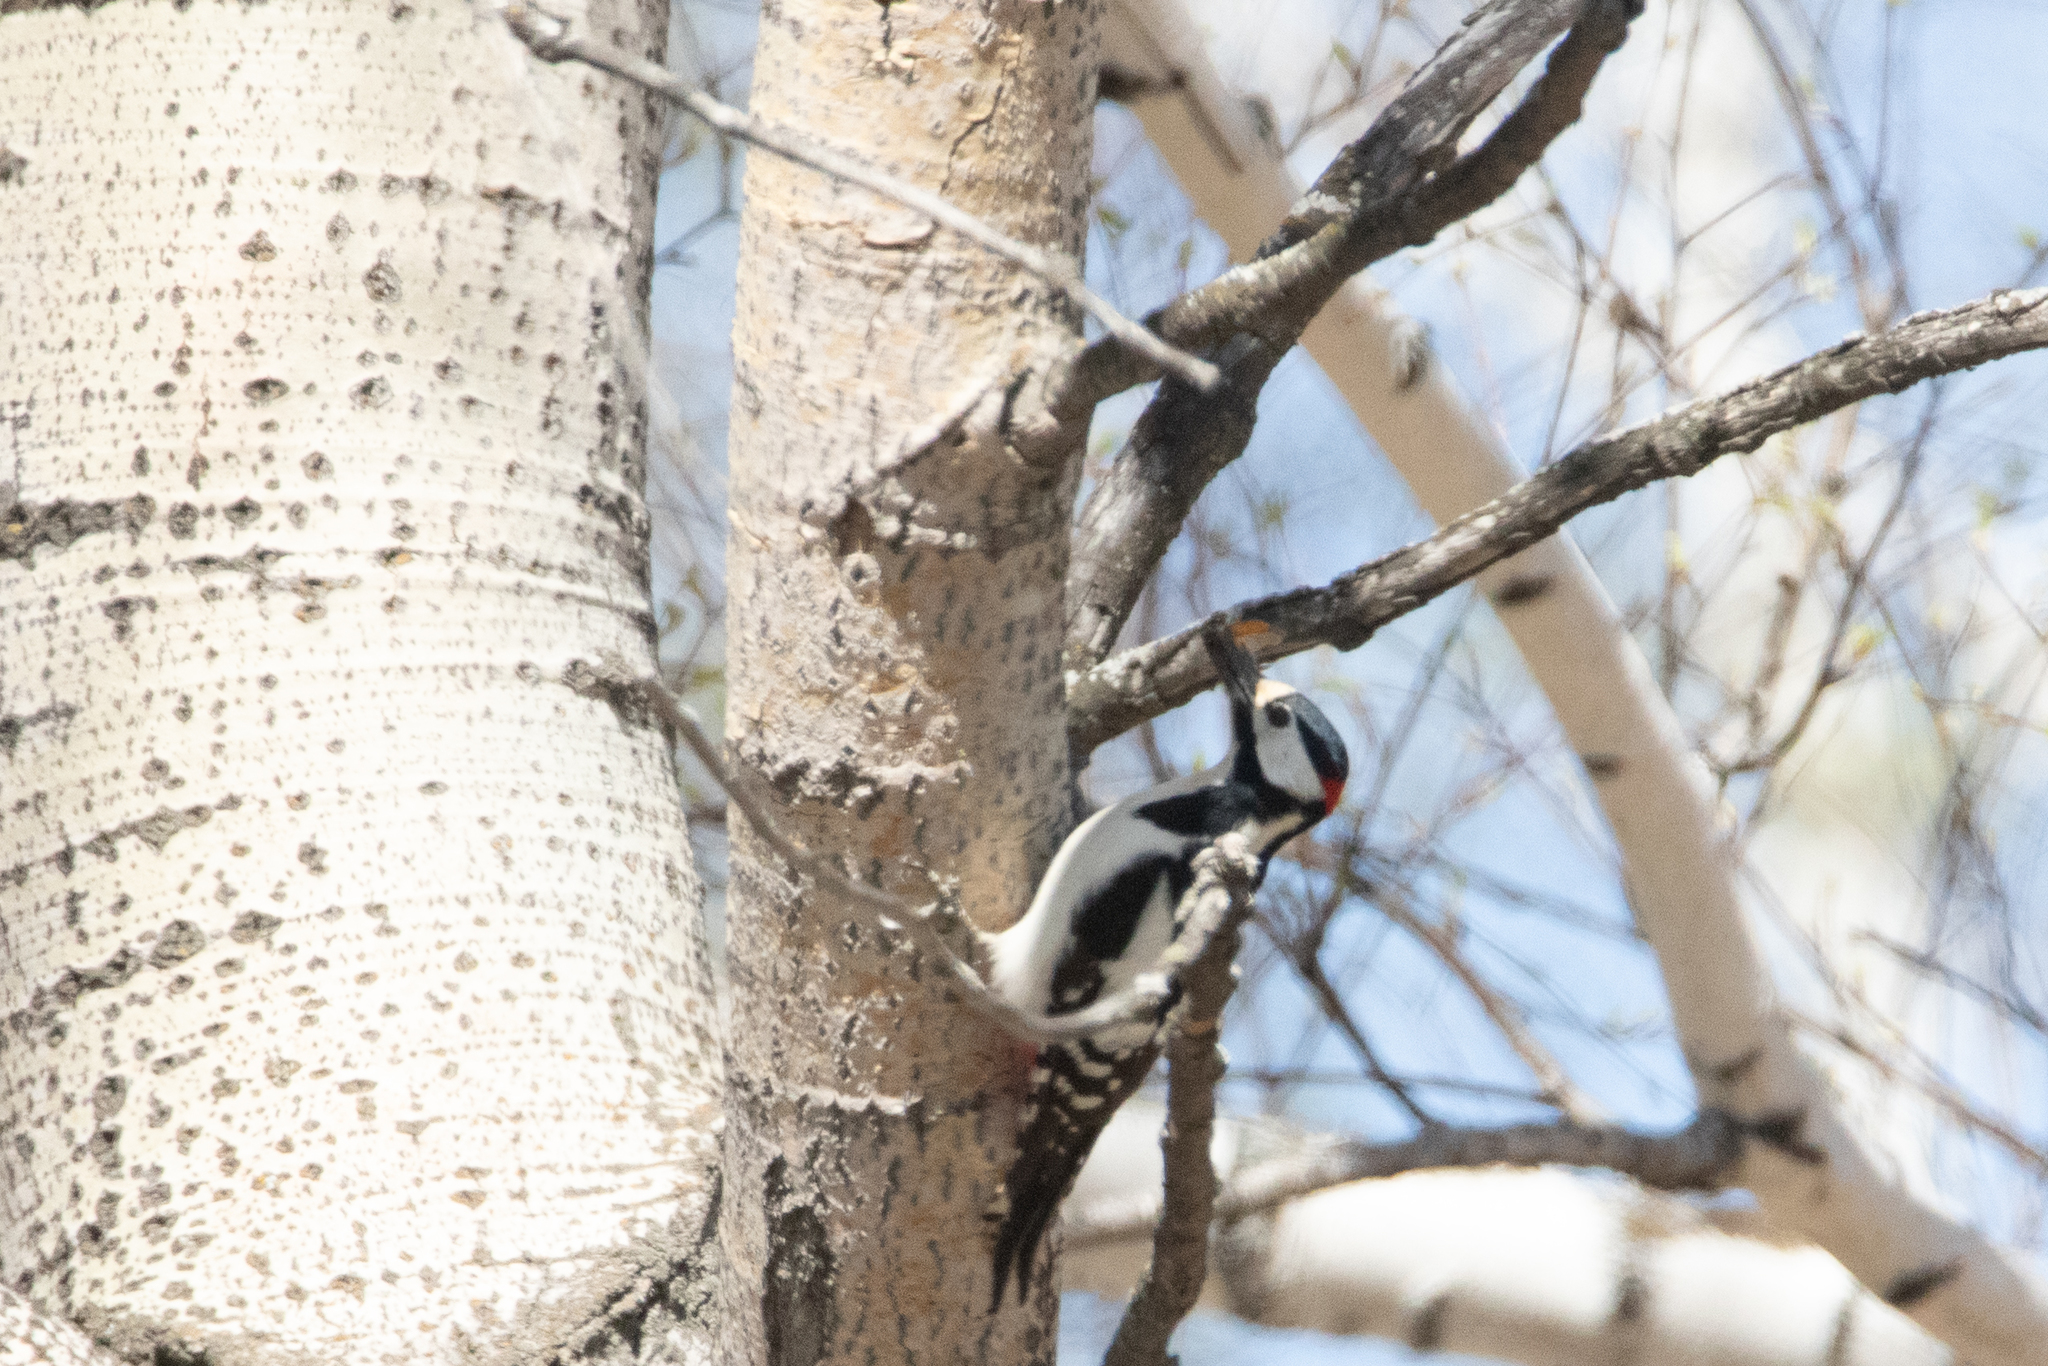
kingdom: Animalia
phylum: Chordata
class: Aves
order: Piciformes
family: Picidae
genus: Dendrocopos
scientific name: Dendrocopos major
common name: Great spotted woodpecker
